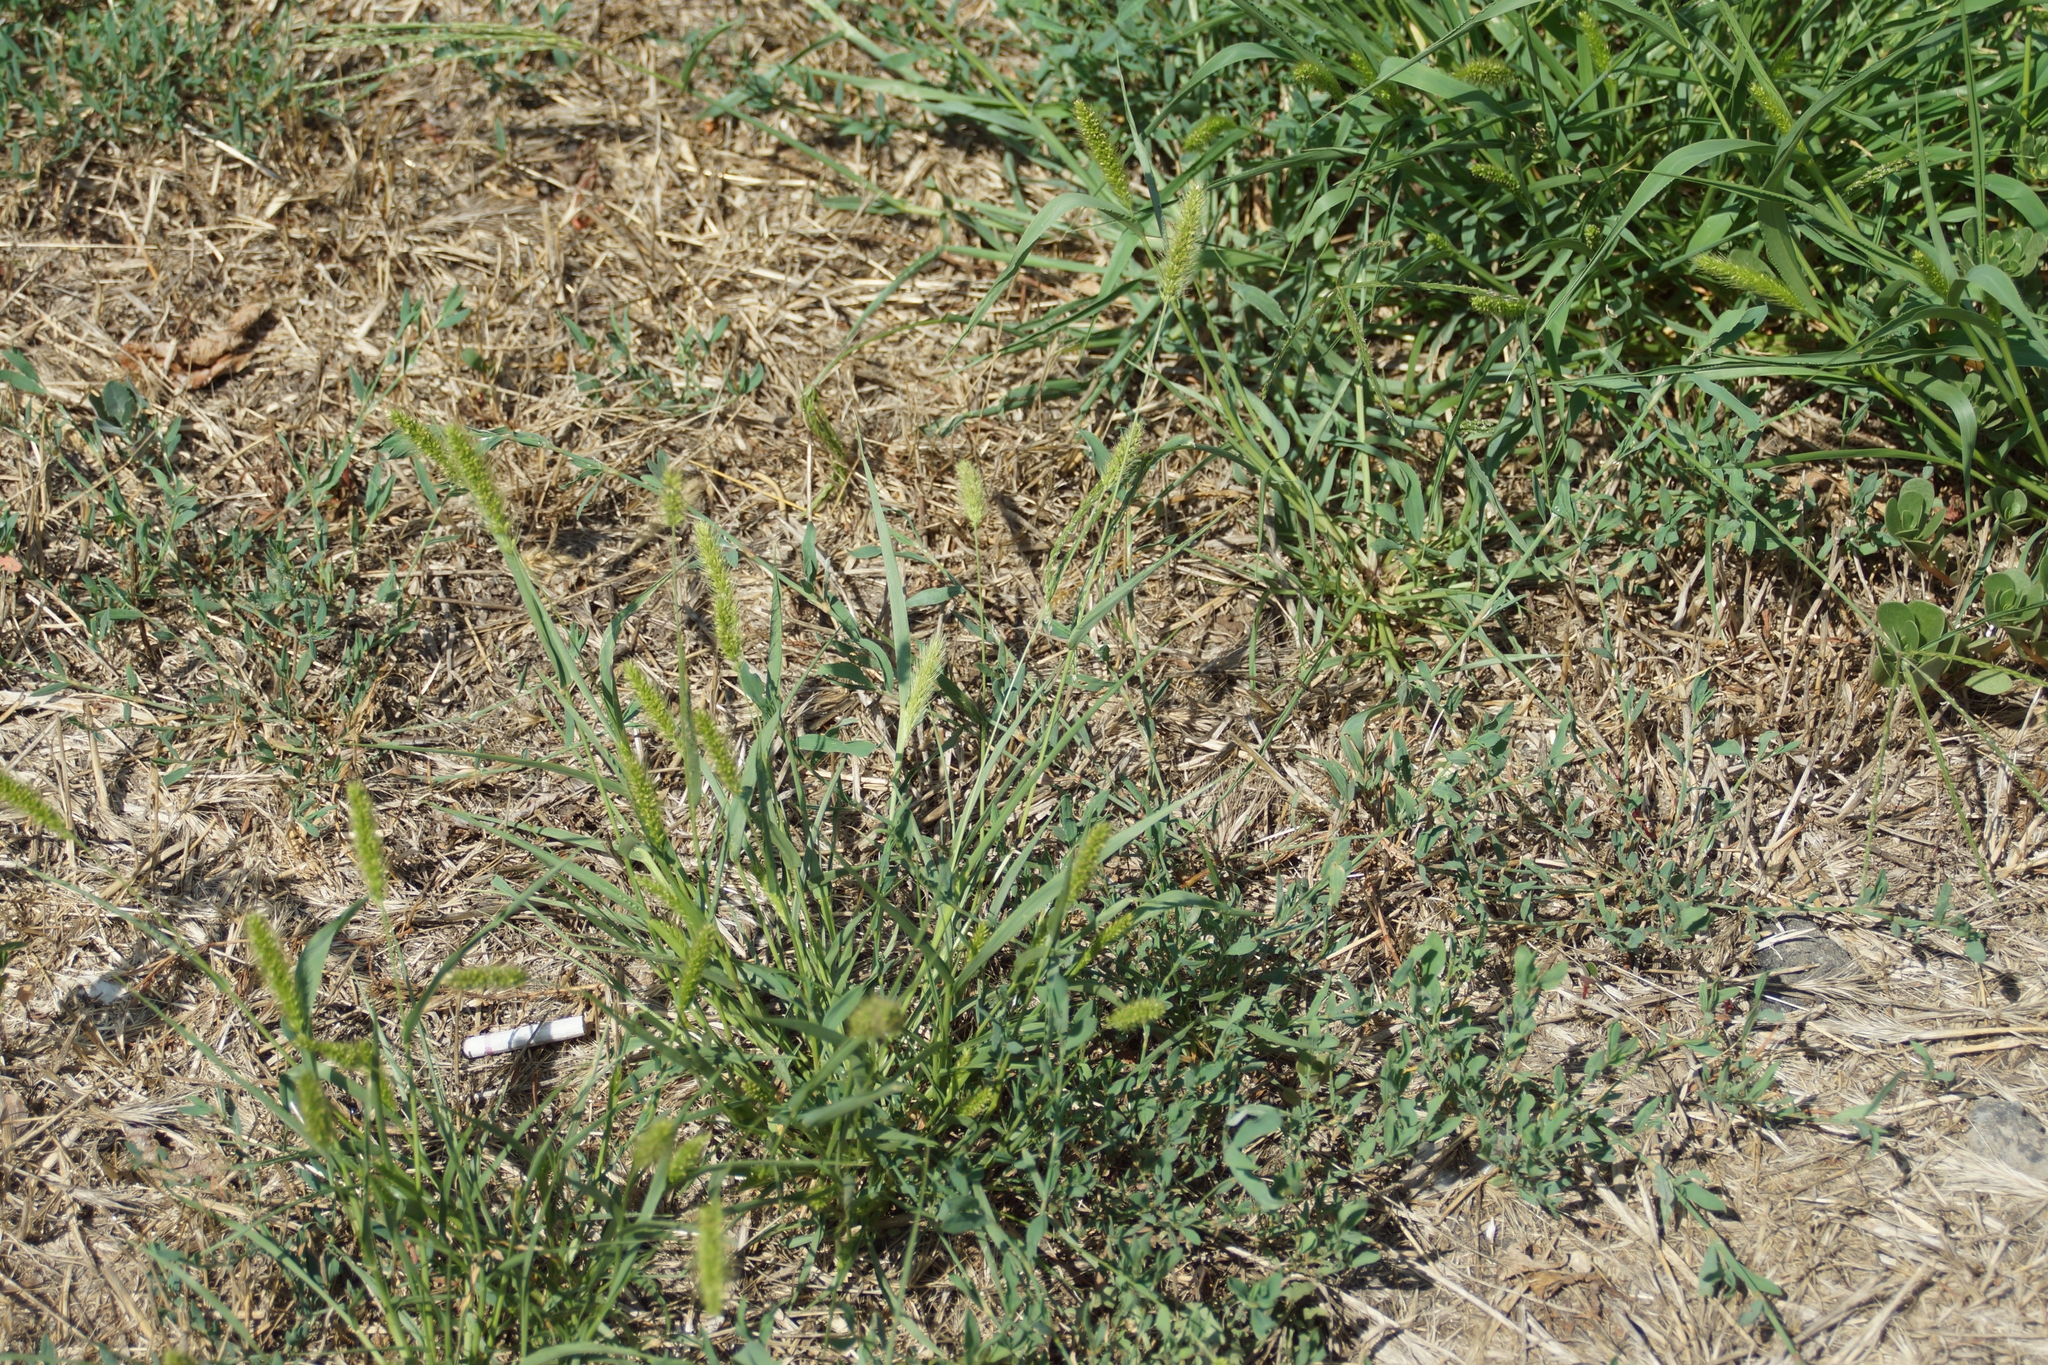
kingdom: Plantae
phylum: Tracheophyta
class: Liliopsida
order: Poales
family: Poaceae
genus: Setaria
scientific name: Setaria viridis
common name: Green bristlegrass
